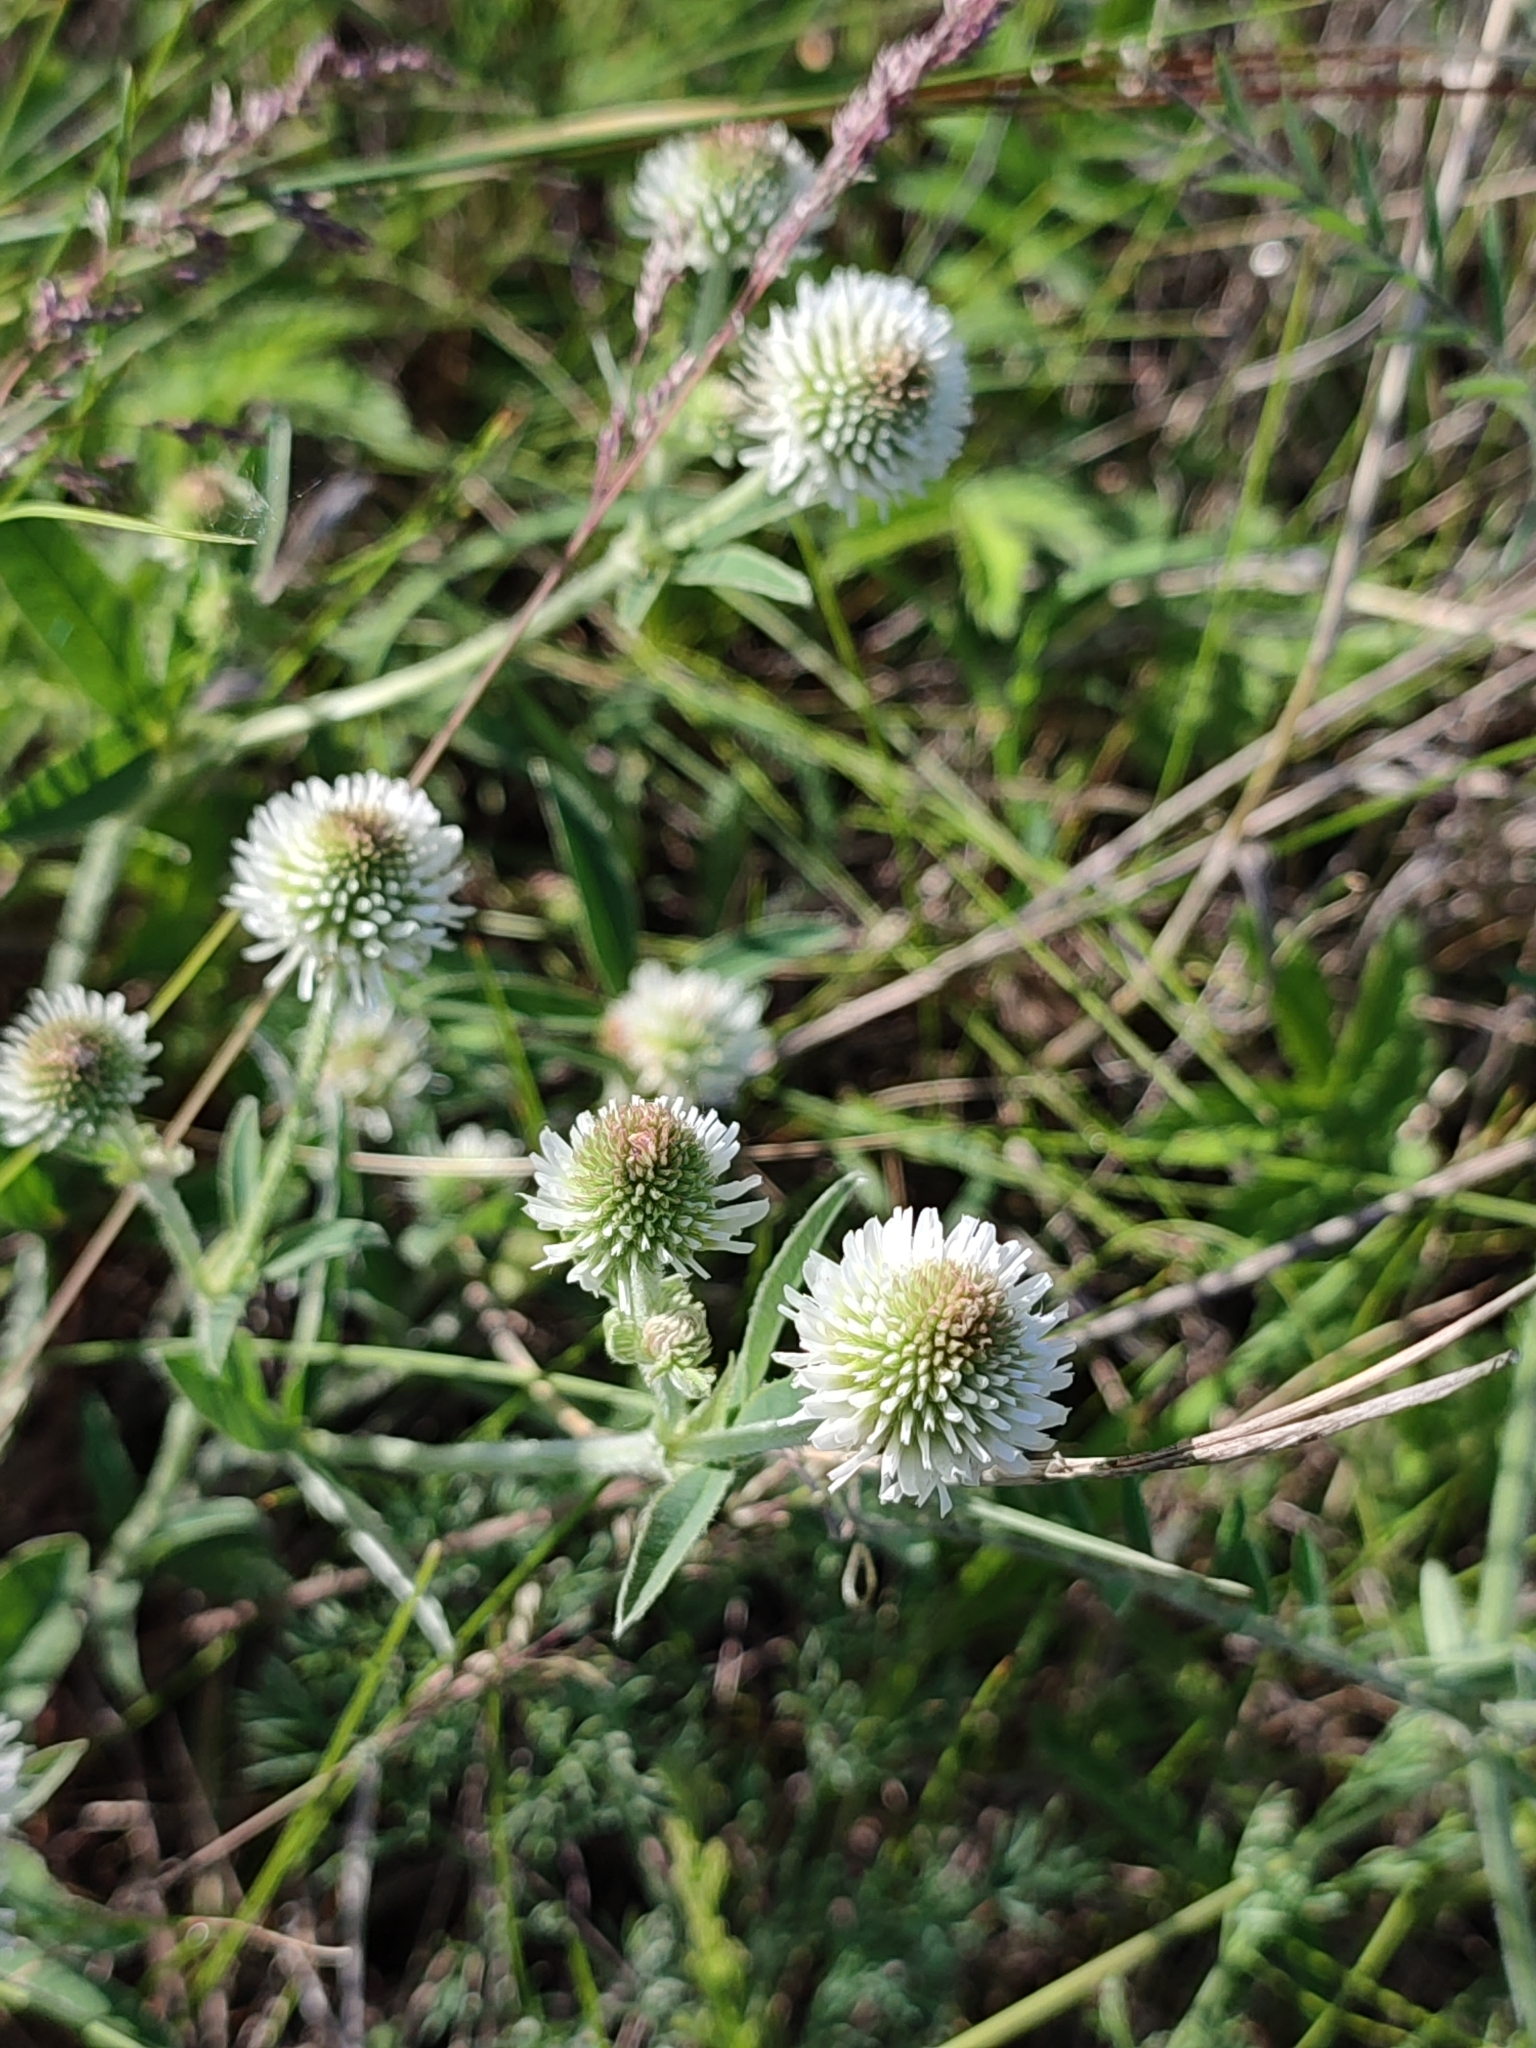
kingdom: Plantae
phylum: Tracheophyta
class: Magnoliopsida
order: Fabales
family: Fabaceae
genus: Trifolium
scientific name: Trifolium montanum
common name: Mountain clover
